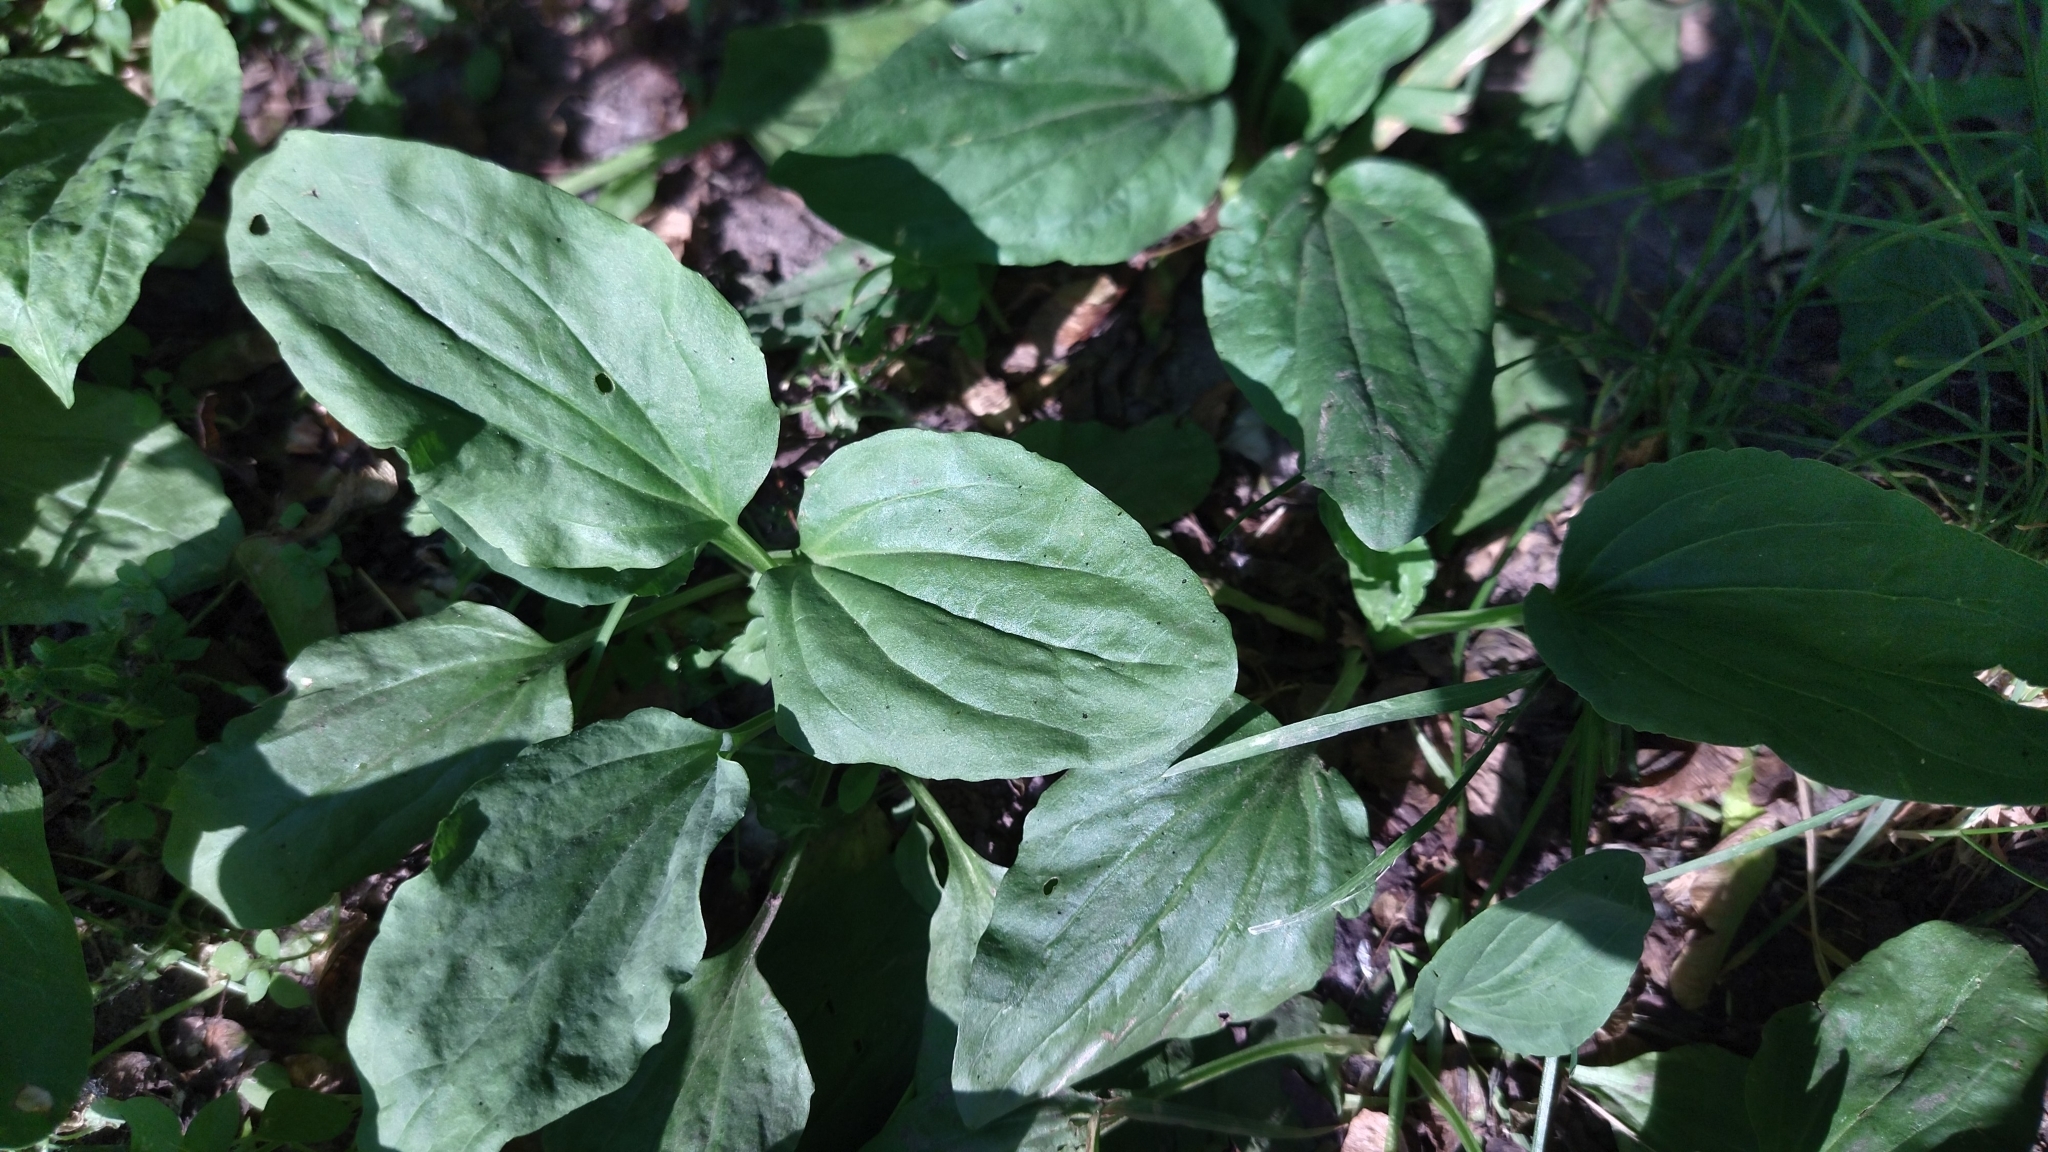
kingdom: Plantae
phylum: Tracheophyta
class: Magnoliopsida
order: Lamiales
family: Plantaginaceae
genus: Plantago
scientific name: Plantago major
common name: Common plantain
